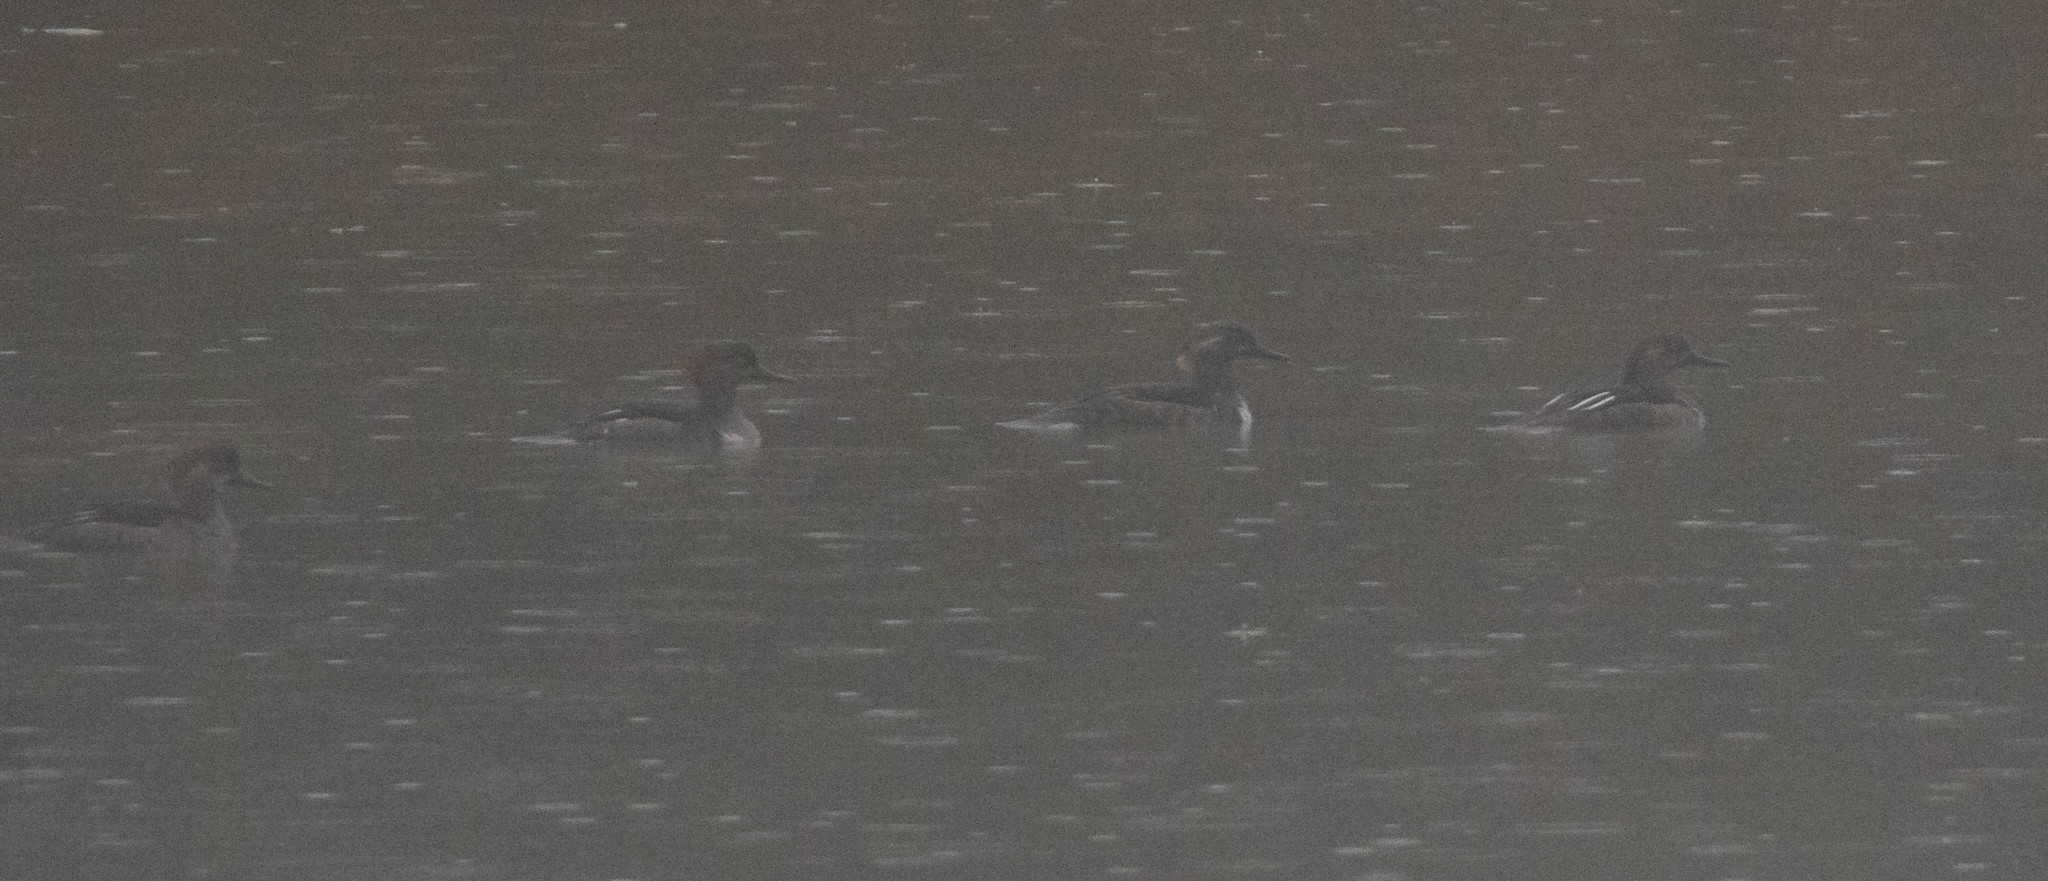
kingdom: Animalia
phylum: Chordata
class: Aves
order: Anseriformes
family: Anatidae
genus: Lophodytes
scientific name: Lophodytes cucullatus
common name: Hooded merganser
